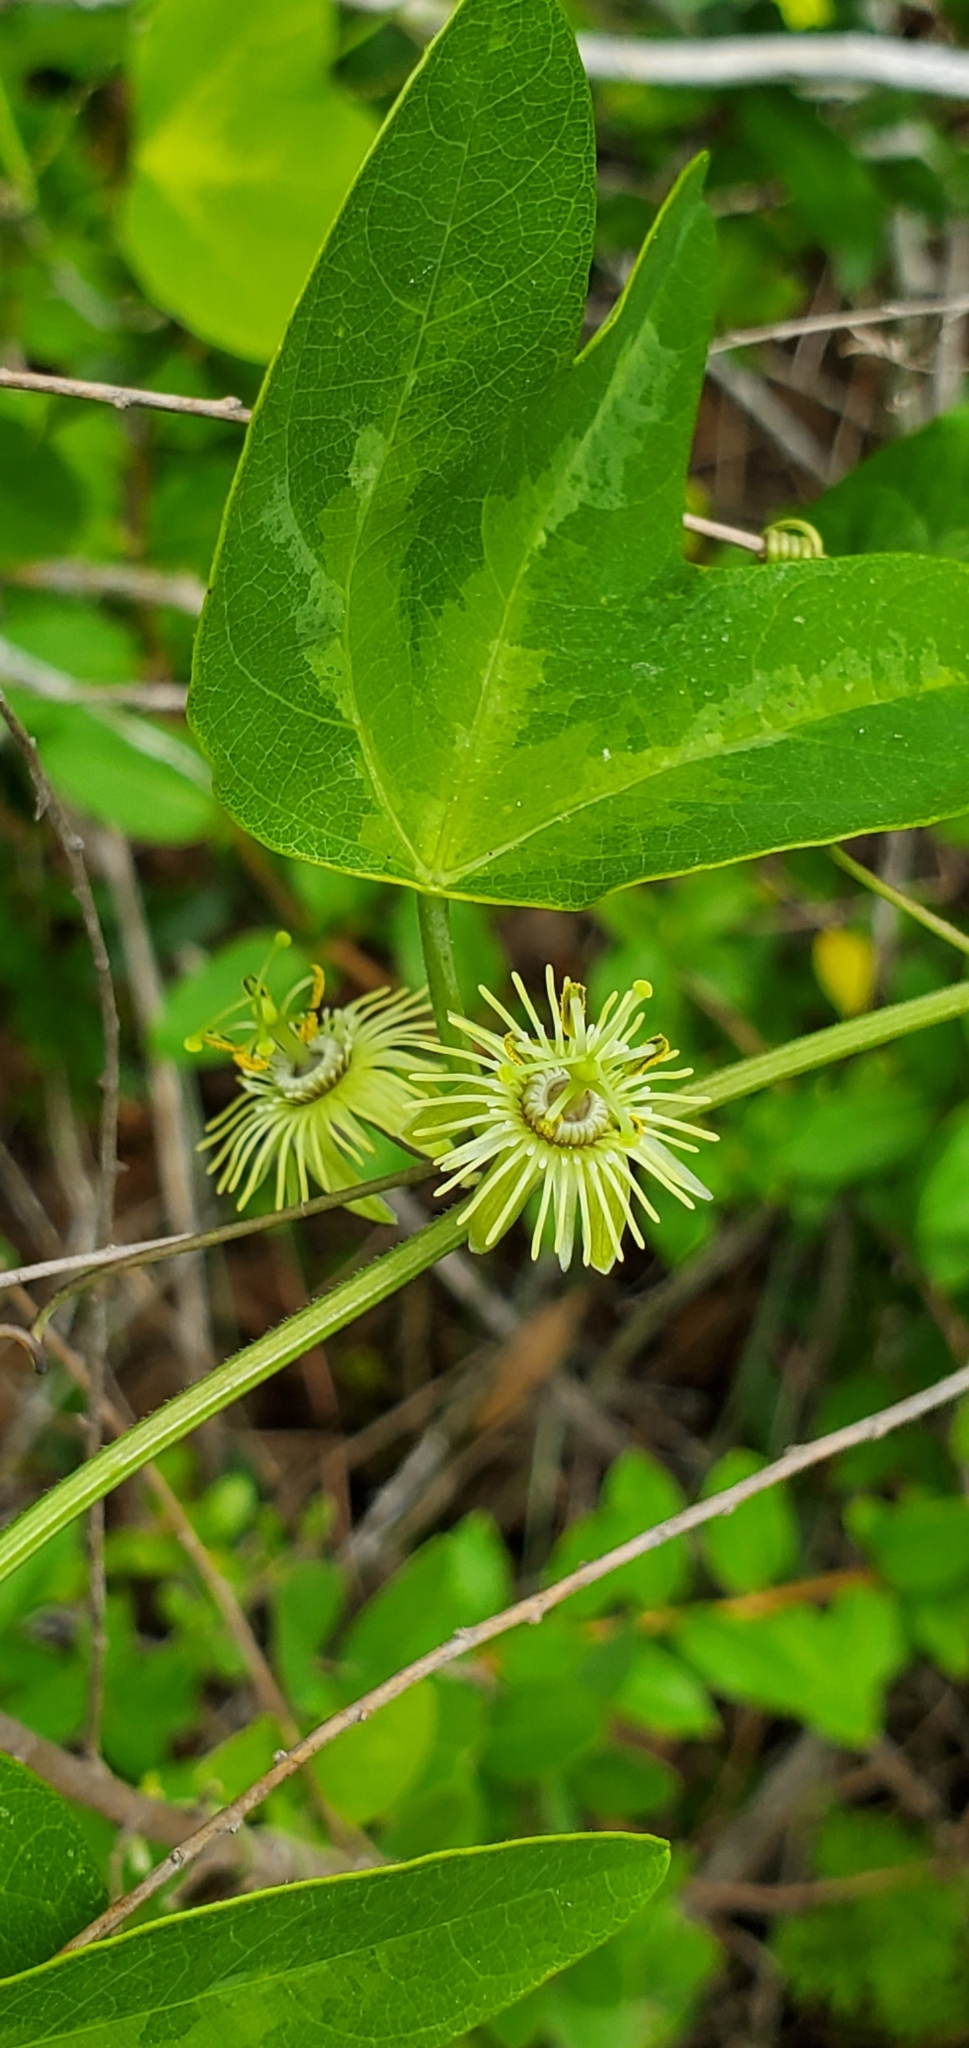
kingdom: Plantae
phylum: Tracheophyta
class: Magnoliopsida
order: Malpighiales
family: Passifloraceae
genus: Passiflora
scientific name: Passiflora lutea
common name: Yellow passionflower
